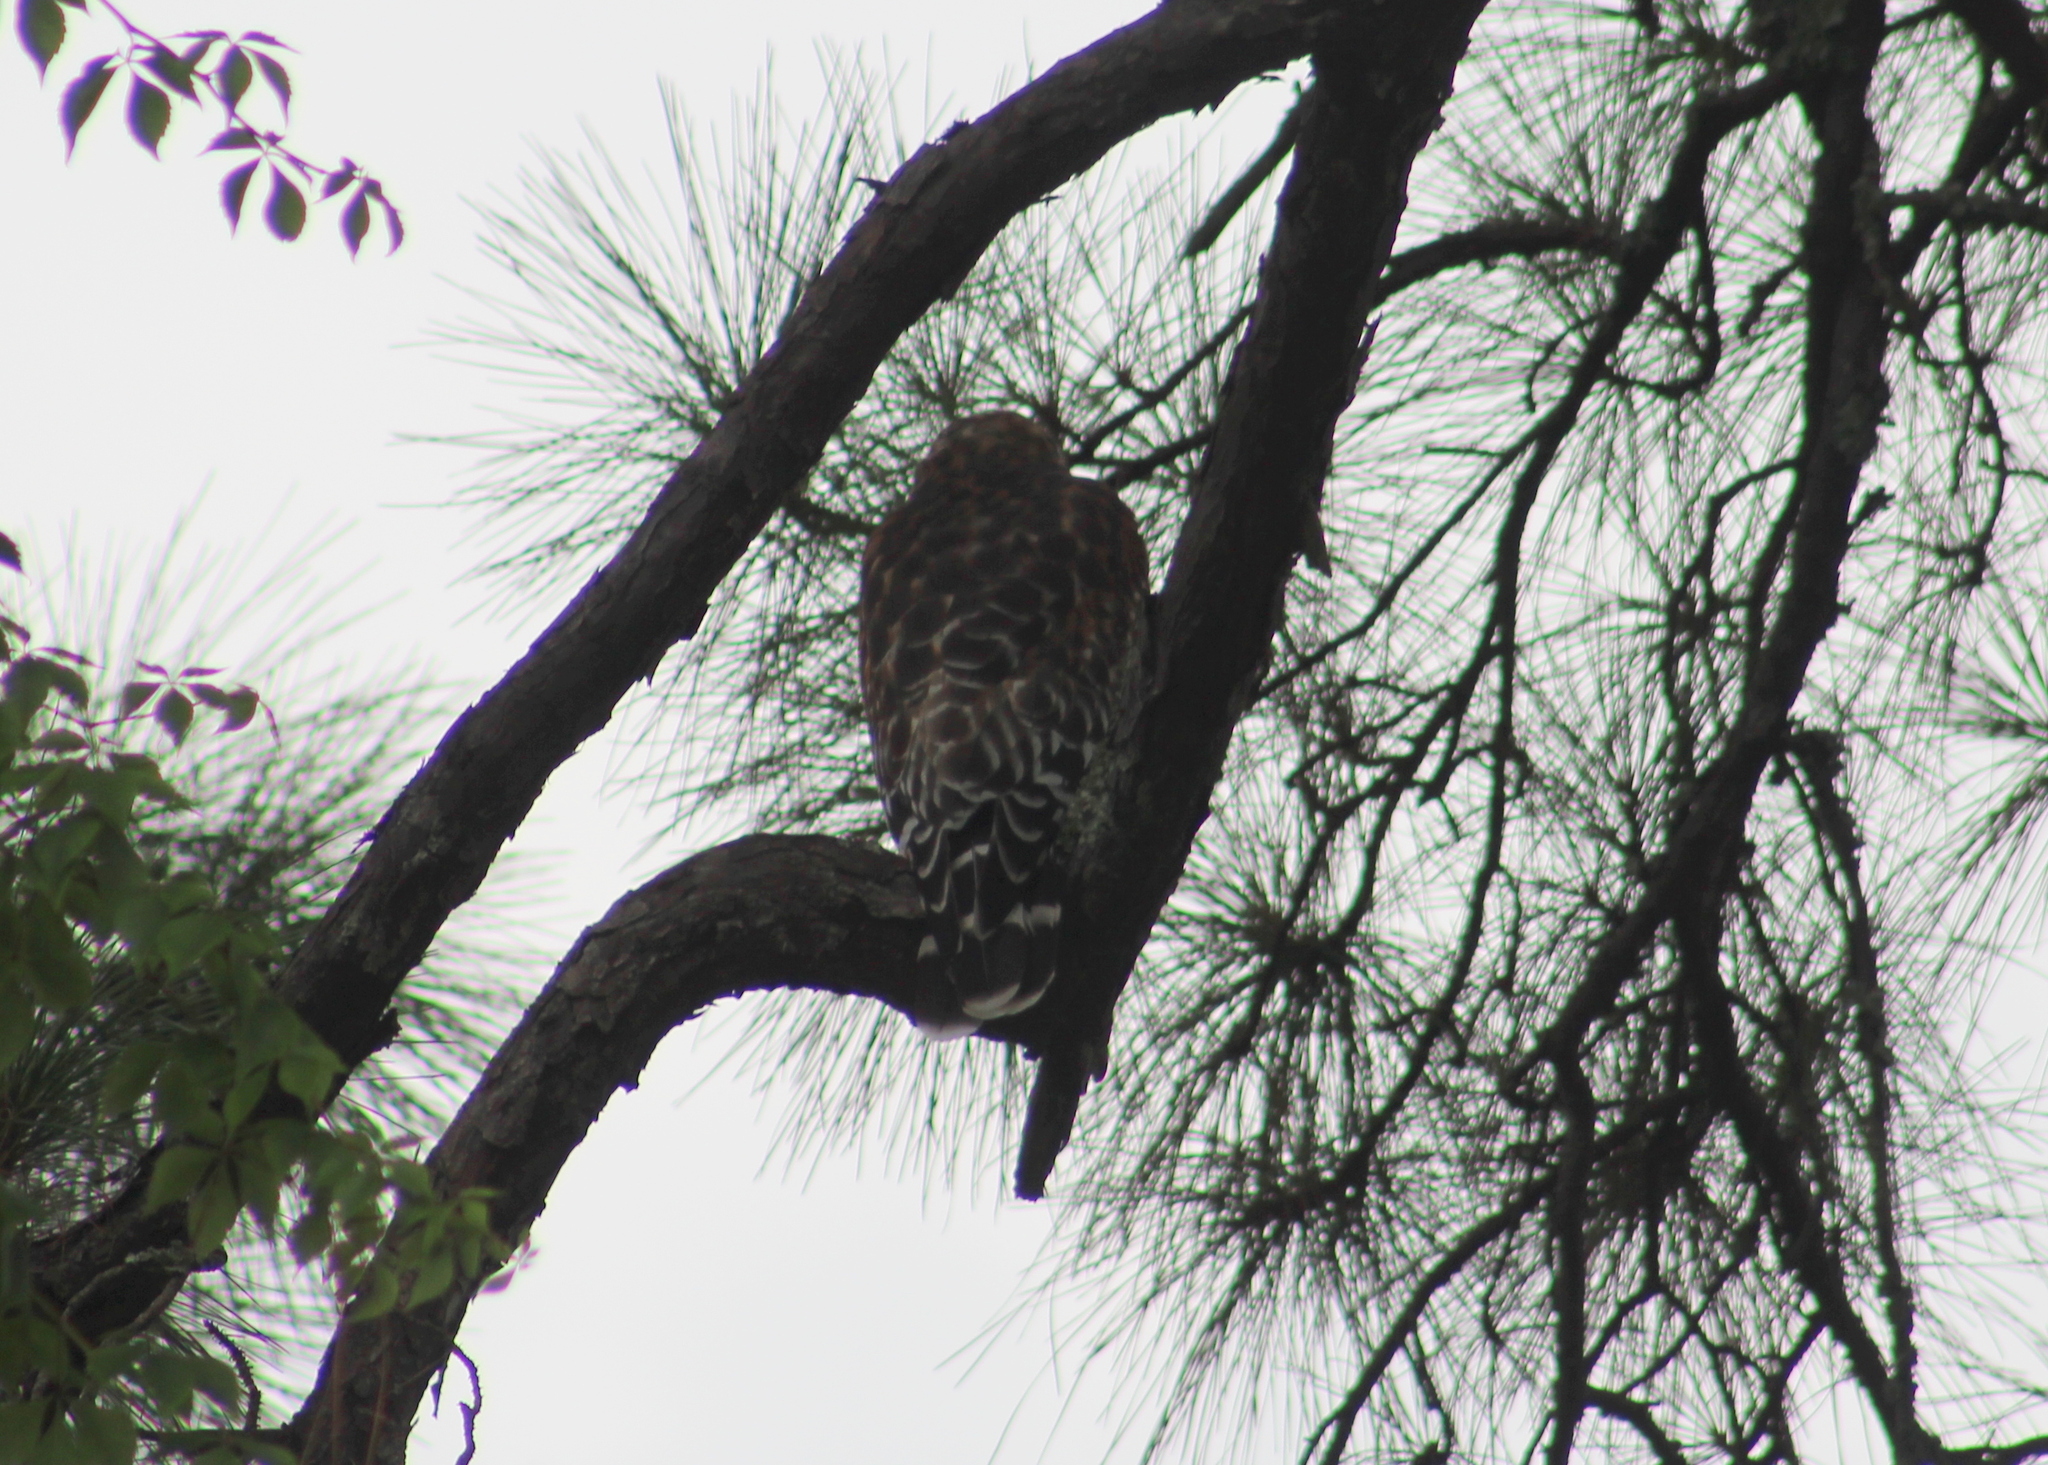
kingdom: Animalia
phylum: Chordata
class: Aves
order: Accipitriformes
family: Accipitridae
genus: Buteo
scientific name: Buteo lineatus
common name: Red-shouldered hawk
